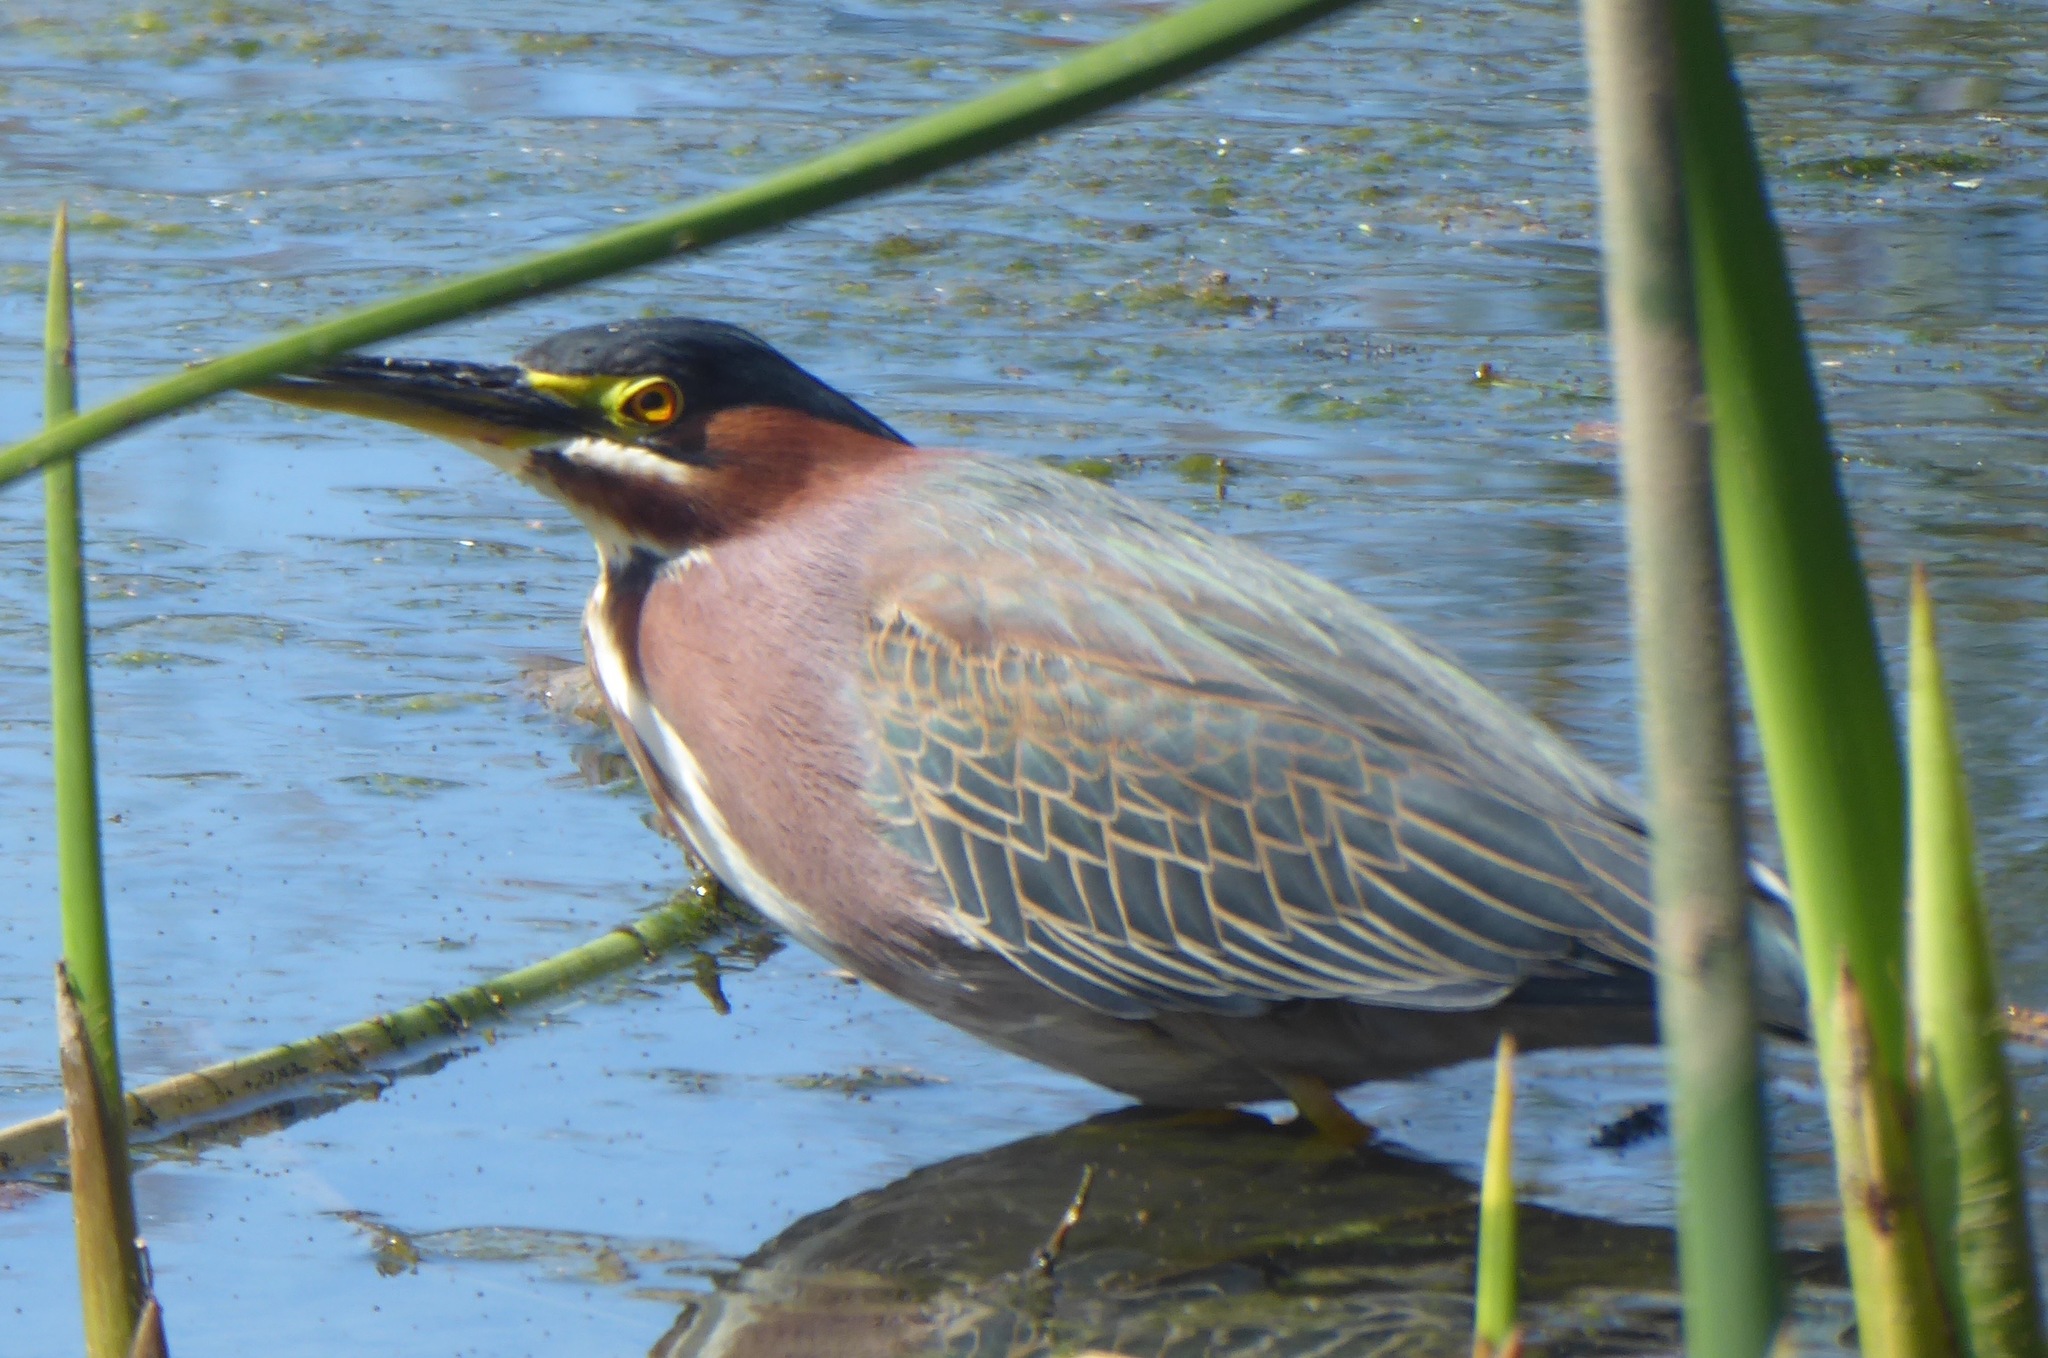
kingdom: Animalia
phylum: Chordata
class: Aves
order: Pelecaniformes
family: Ardeidae
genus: Butorides
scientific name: Butorides virescens
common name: Green heron
